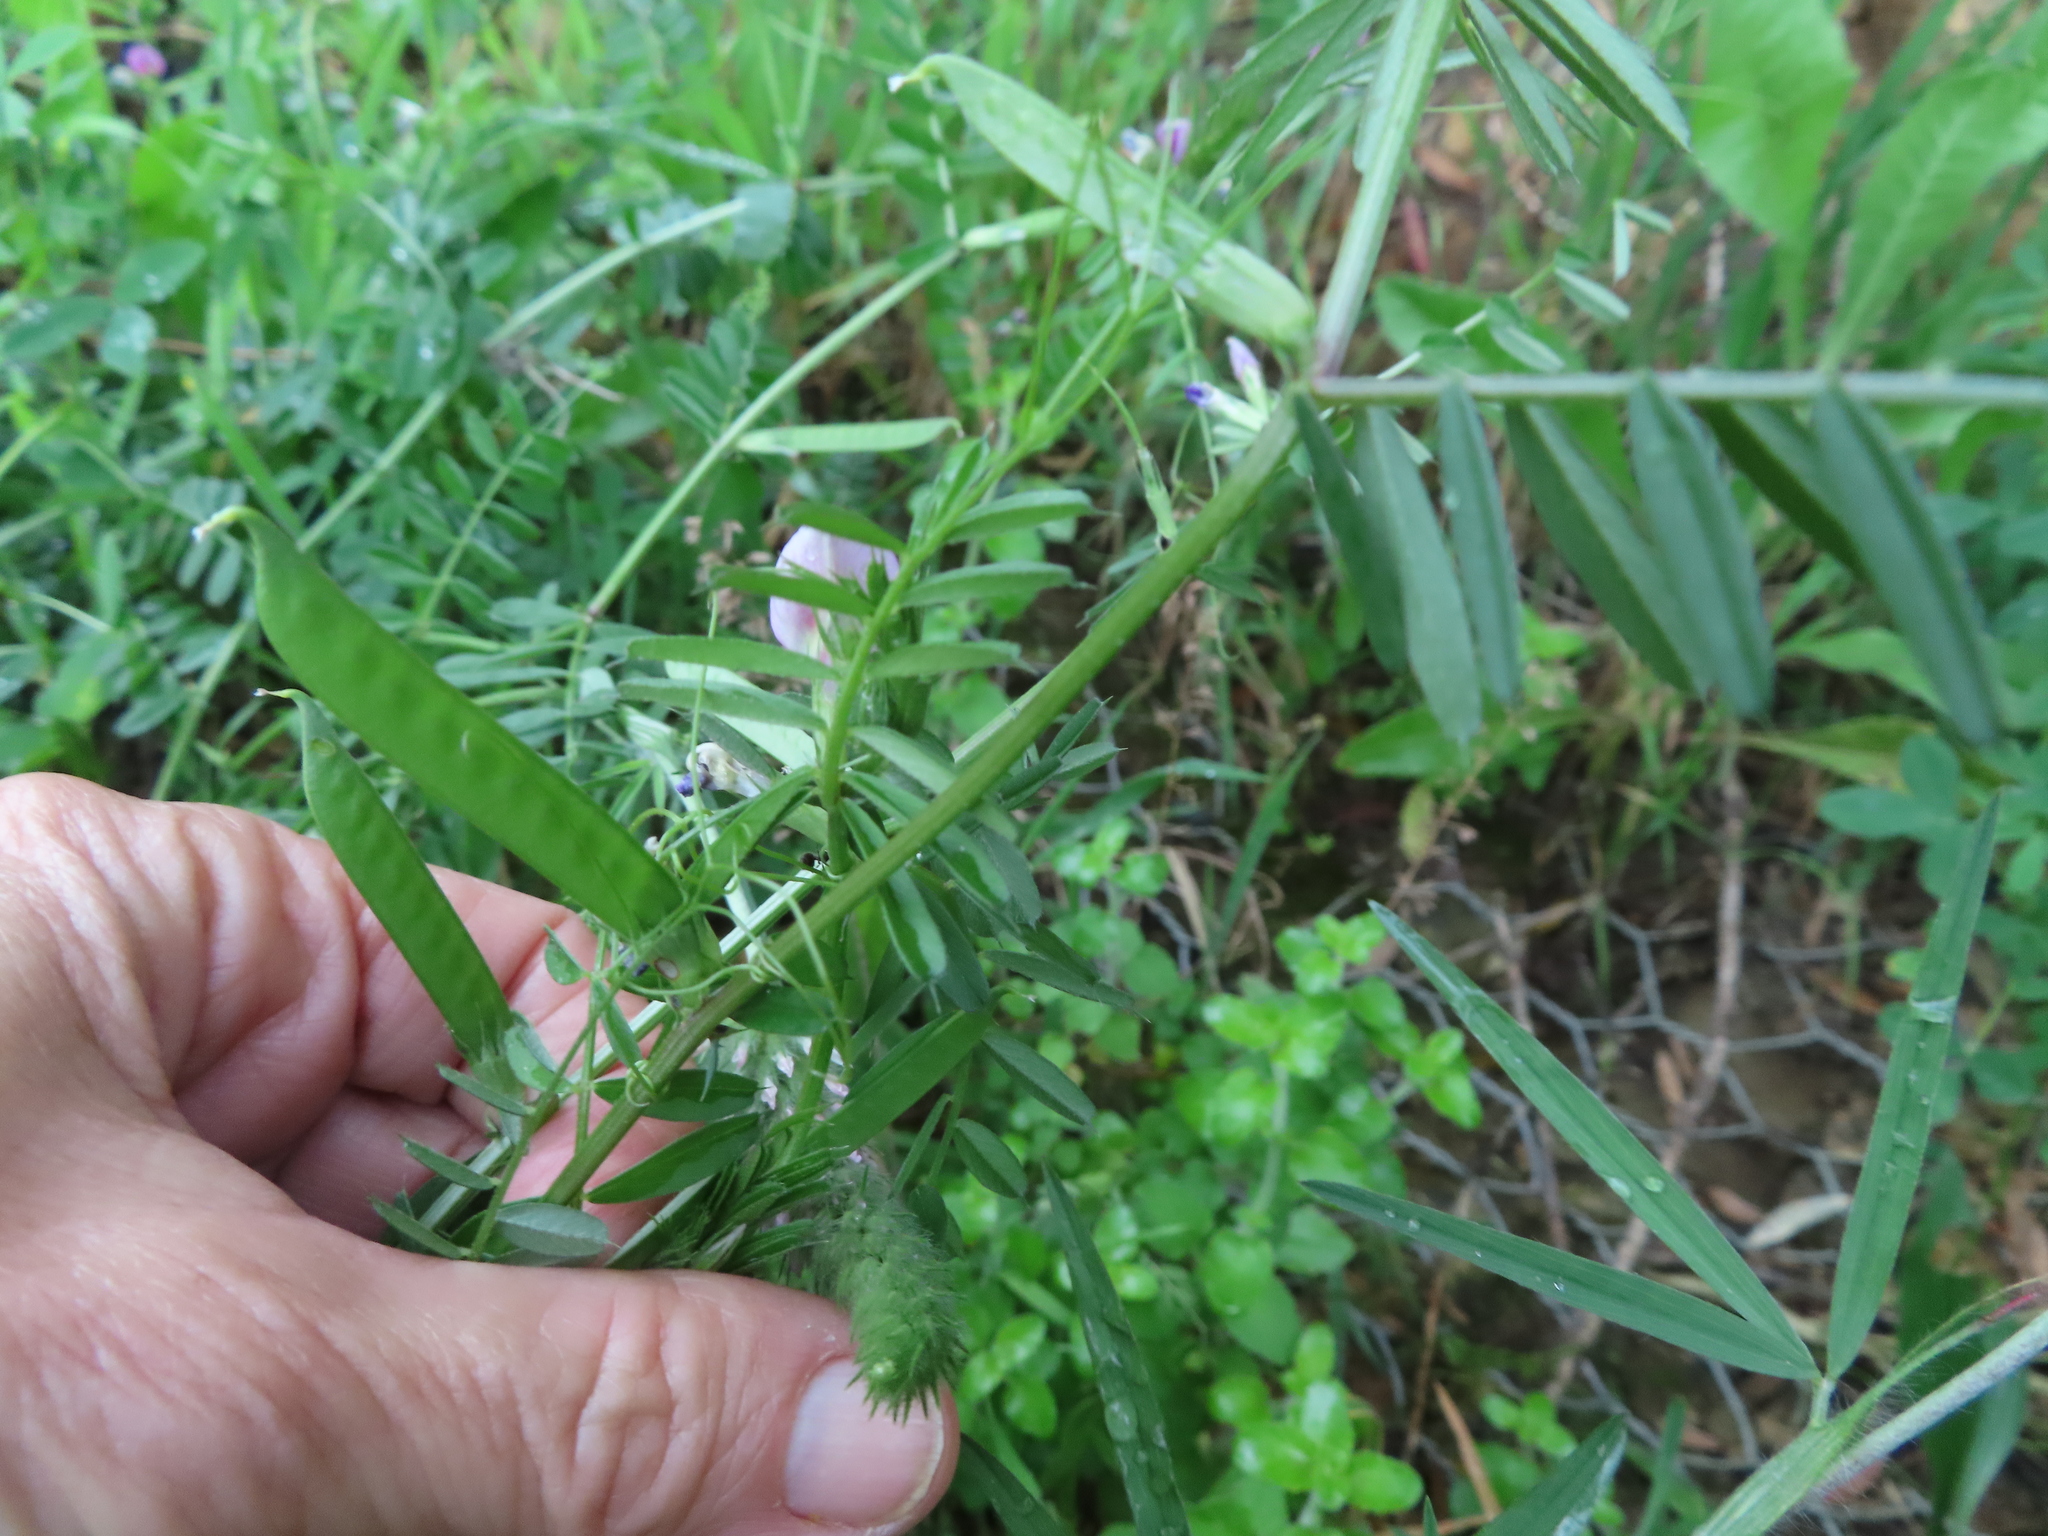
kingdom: Plantae
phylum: Tracheophyta
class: Magnoliopsida
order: Fabales
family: Fabaceae
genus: Vicia
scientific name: Vicia sativa
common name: Garden vetch
